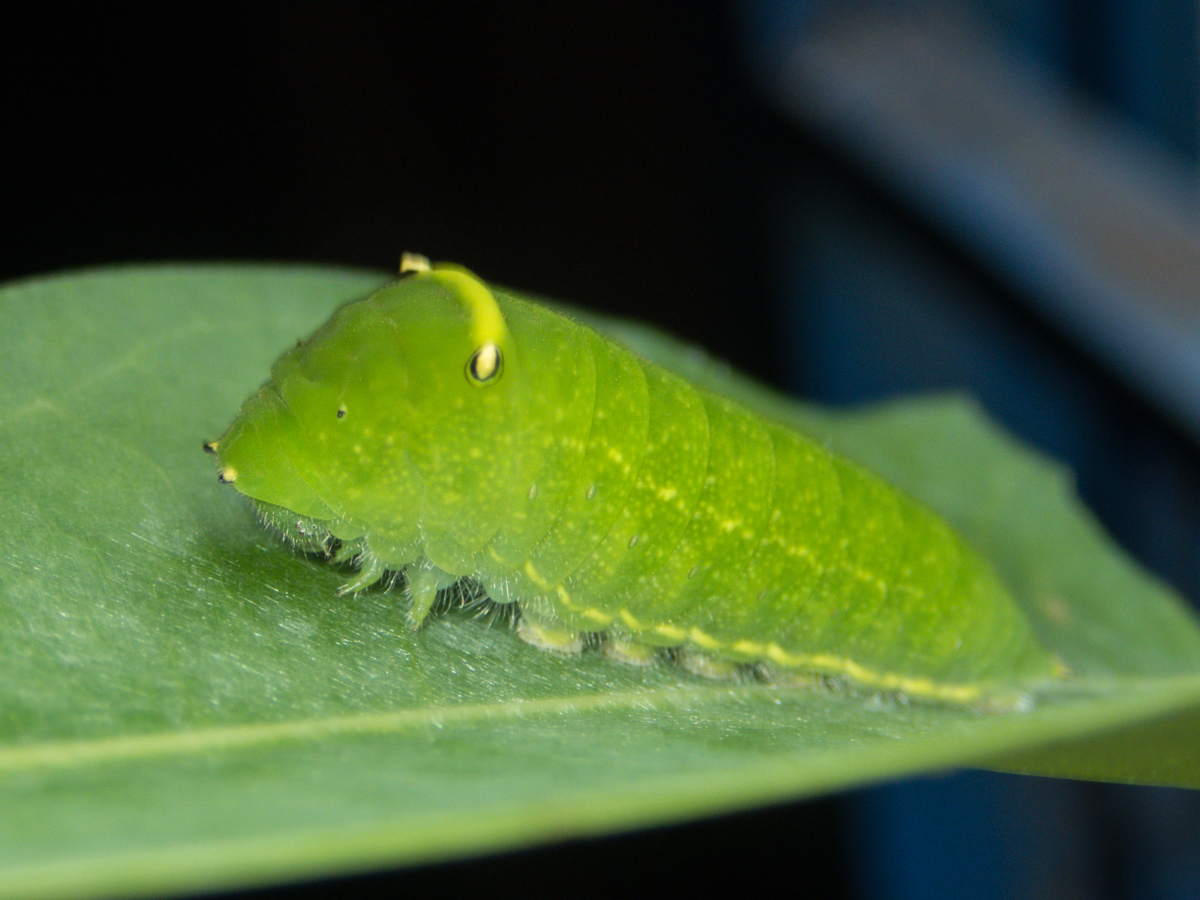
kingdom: Fungi
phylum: Ascomycota
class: Sordariomycetes
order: Microascales
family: Microascaceae
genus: Graphium
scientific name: Graphium sarpedon
